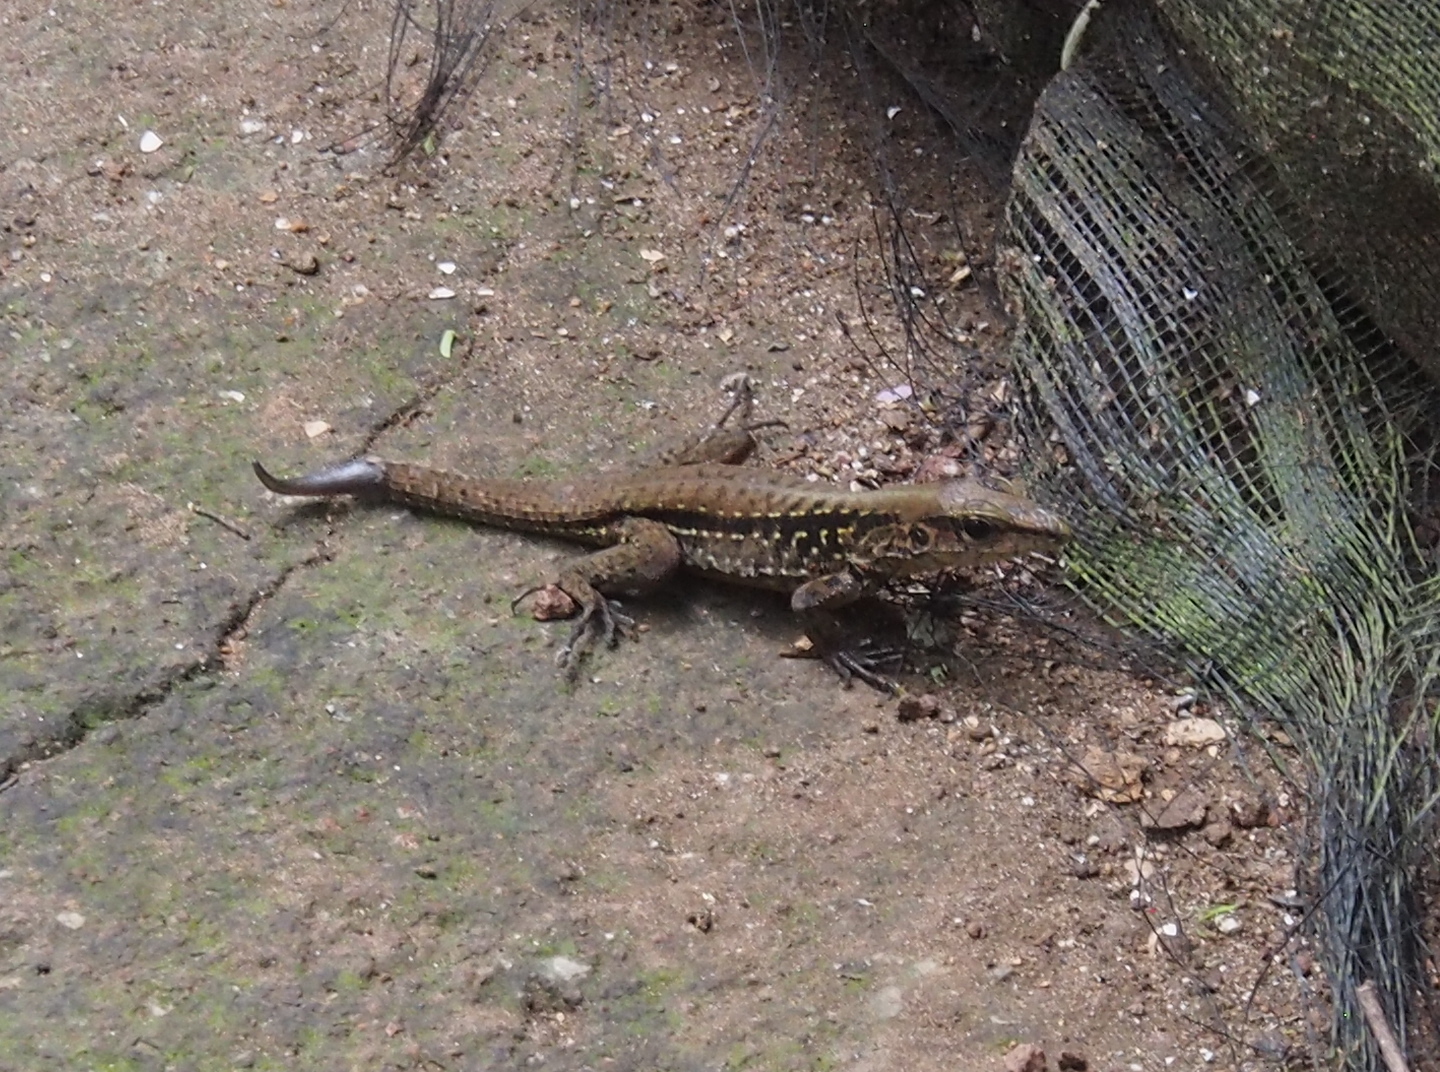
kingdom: Animalia
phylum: Chordata
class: Squamata
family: Teiidae
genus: Holcosus
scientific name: Holcosus festivus
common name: Middle american ameiva
